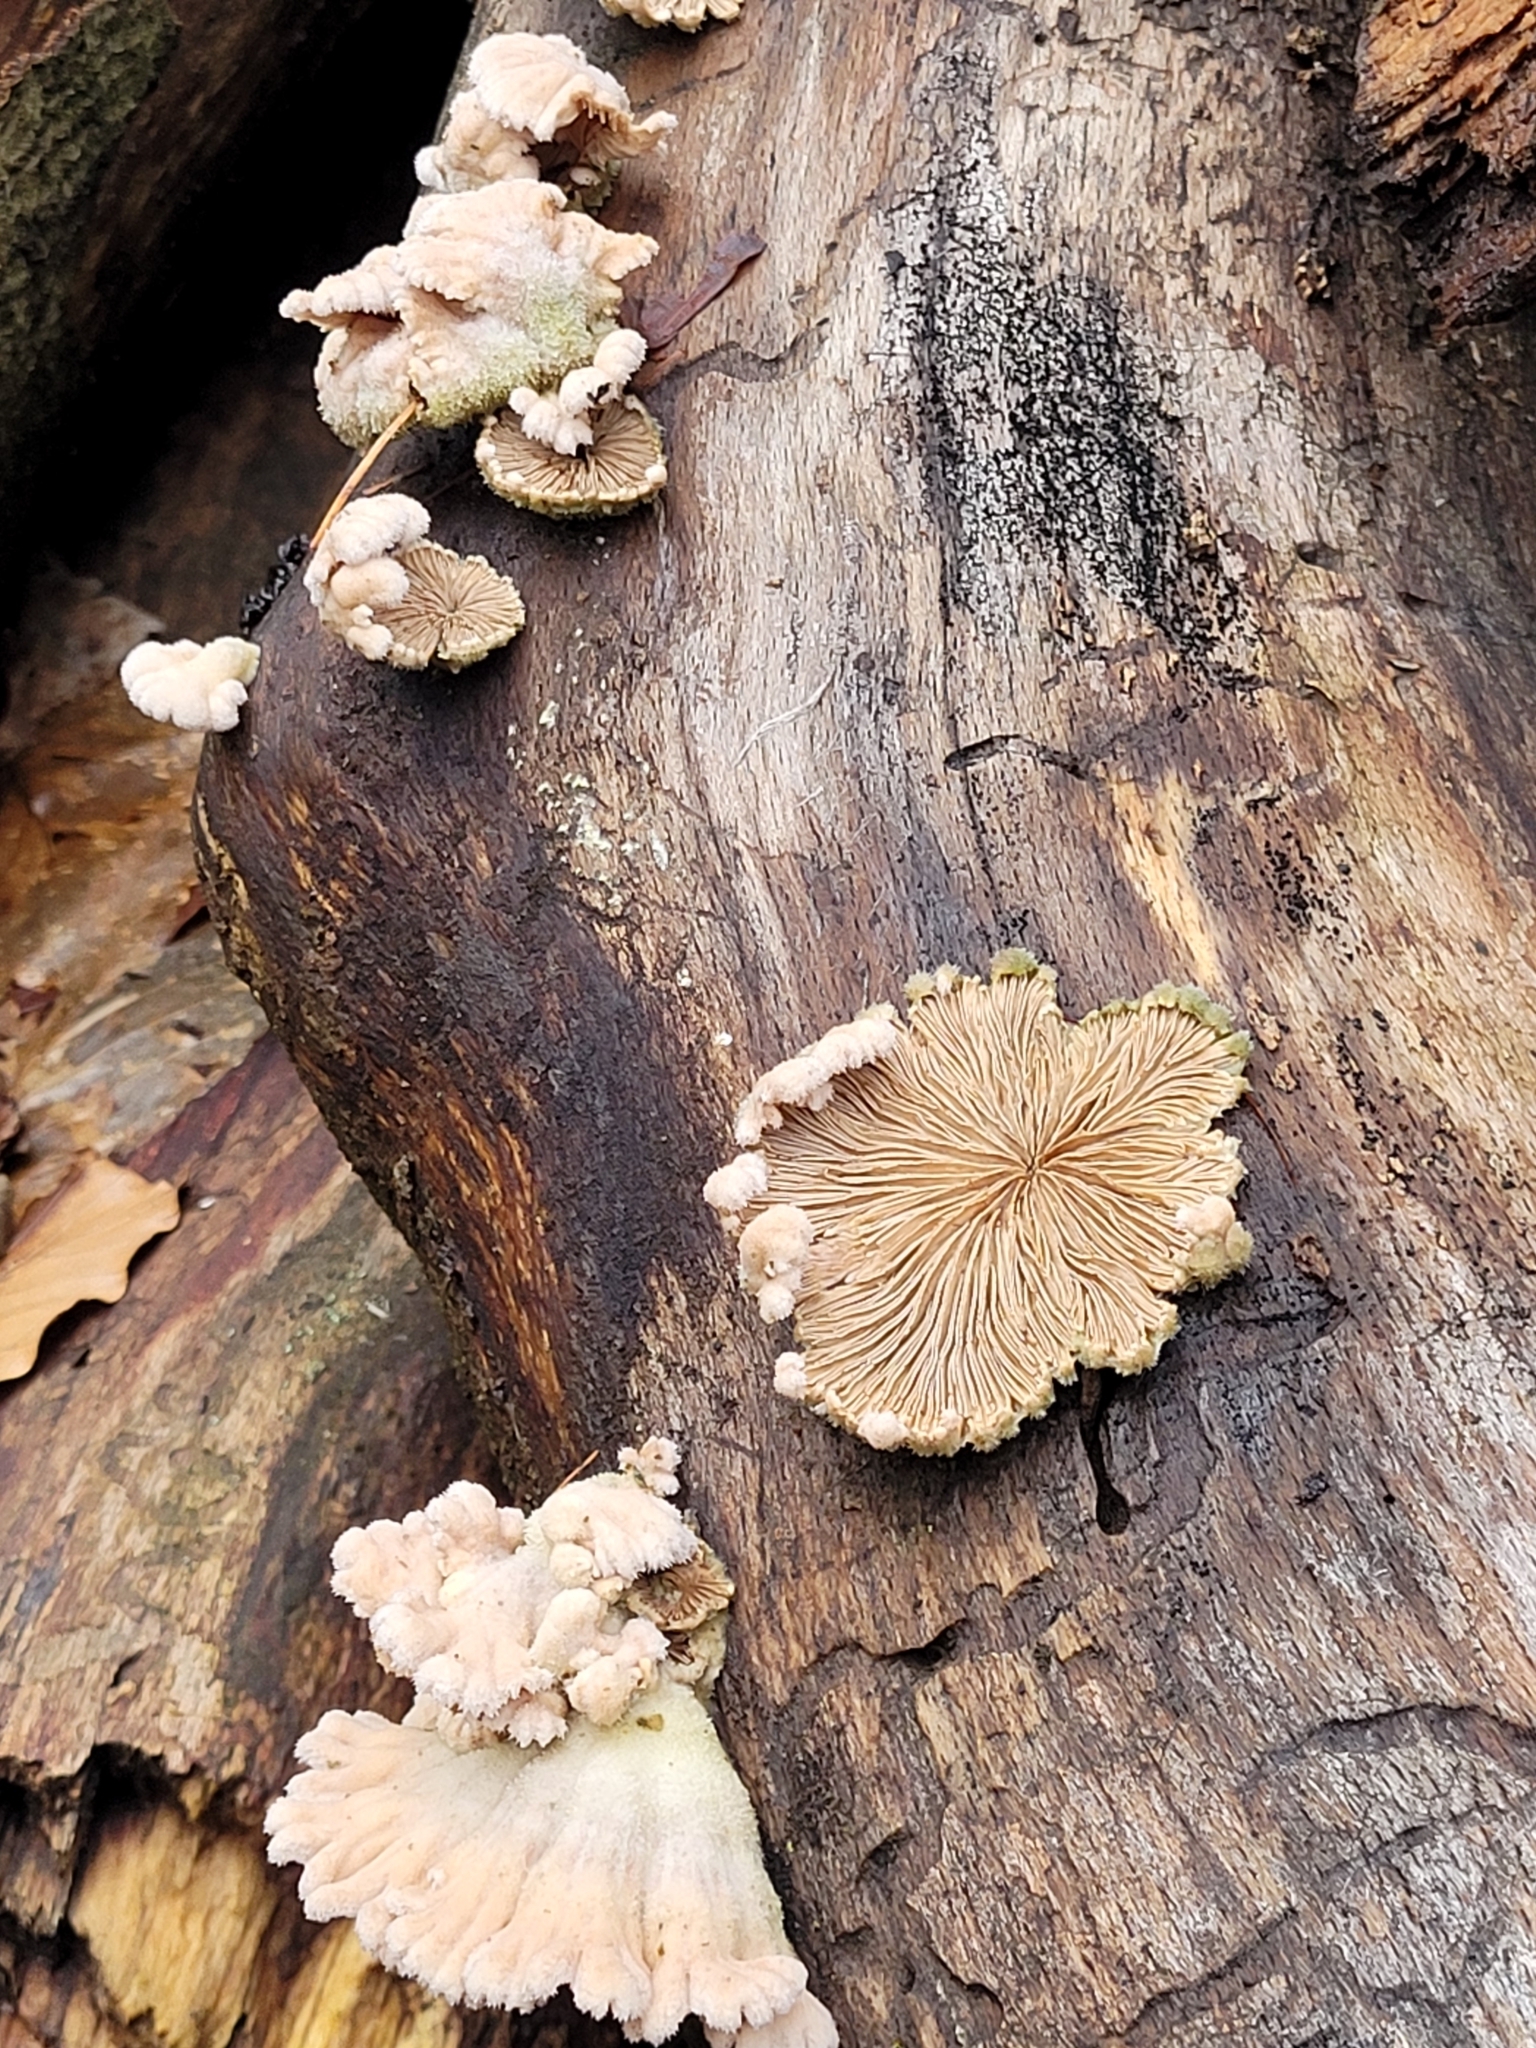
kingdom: Fungi
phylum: Basidiomycota
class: Agaricomycetes
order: Agaricales
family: Schizophyllaceae
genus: Schizophyllum
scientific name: Schizophyllum commune
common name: Common porecrust
